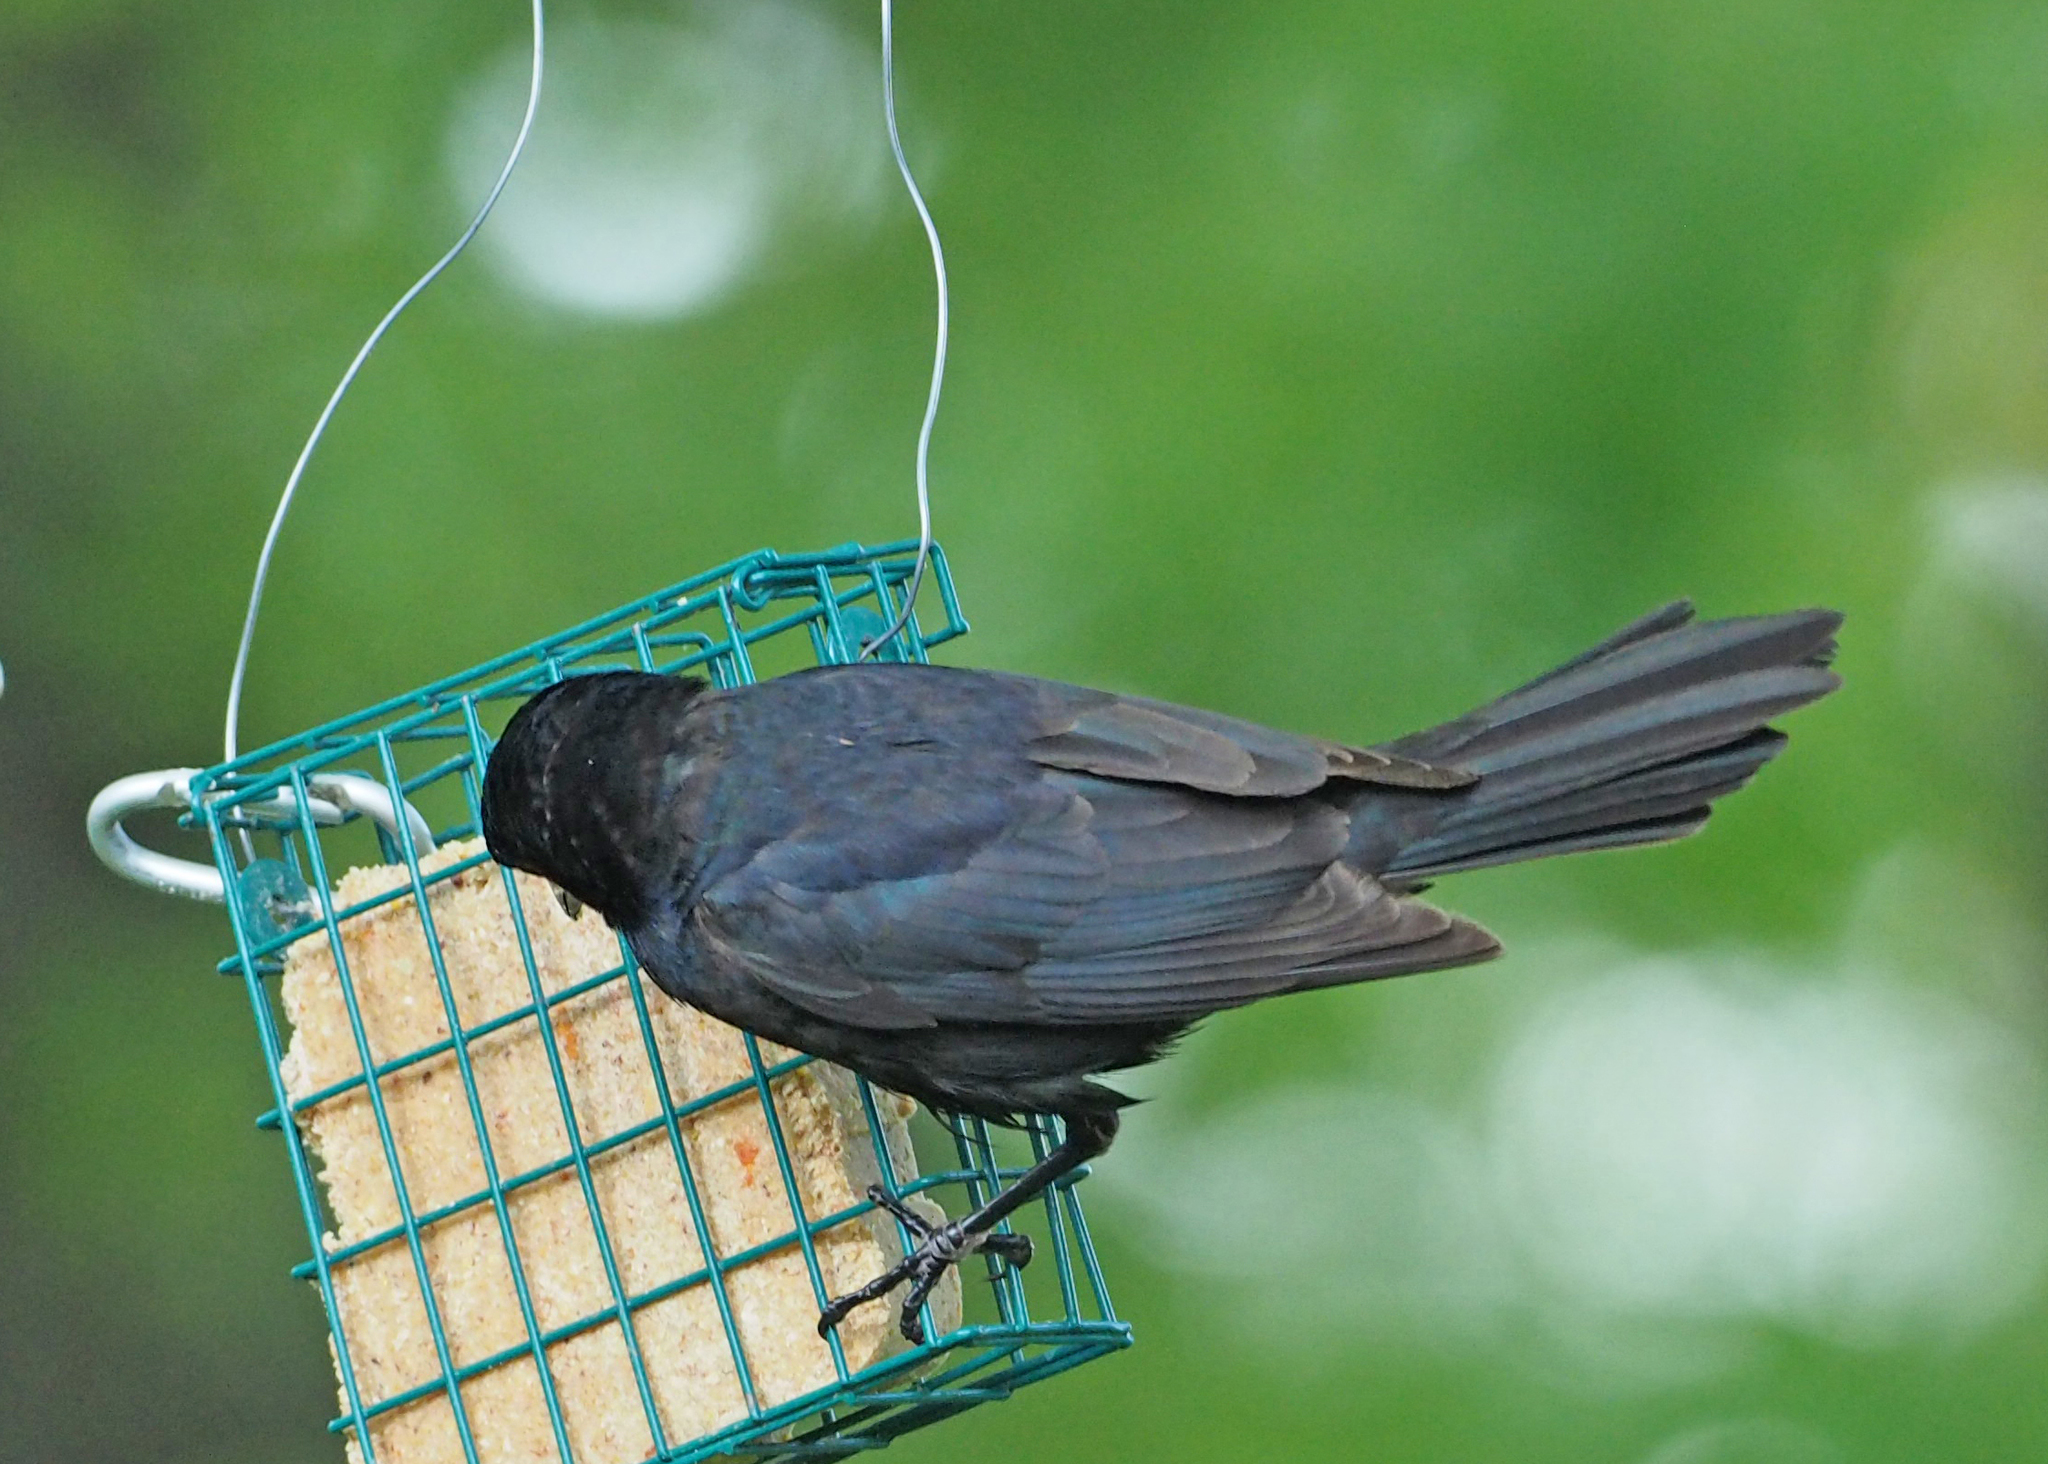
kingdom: Animalia
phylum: Chordata
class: Aves
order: Passeriformes
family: Icteridae
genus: Quiscalus
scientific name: Quiscalus quiscula
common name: Common grackle
